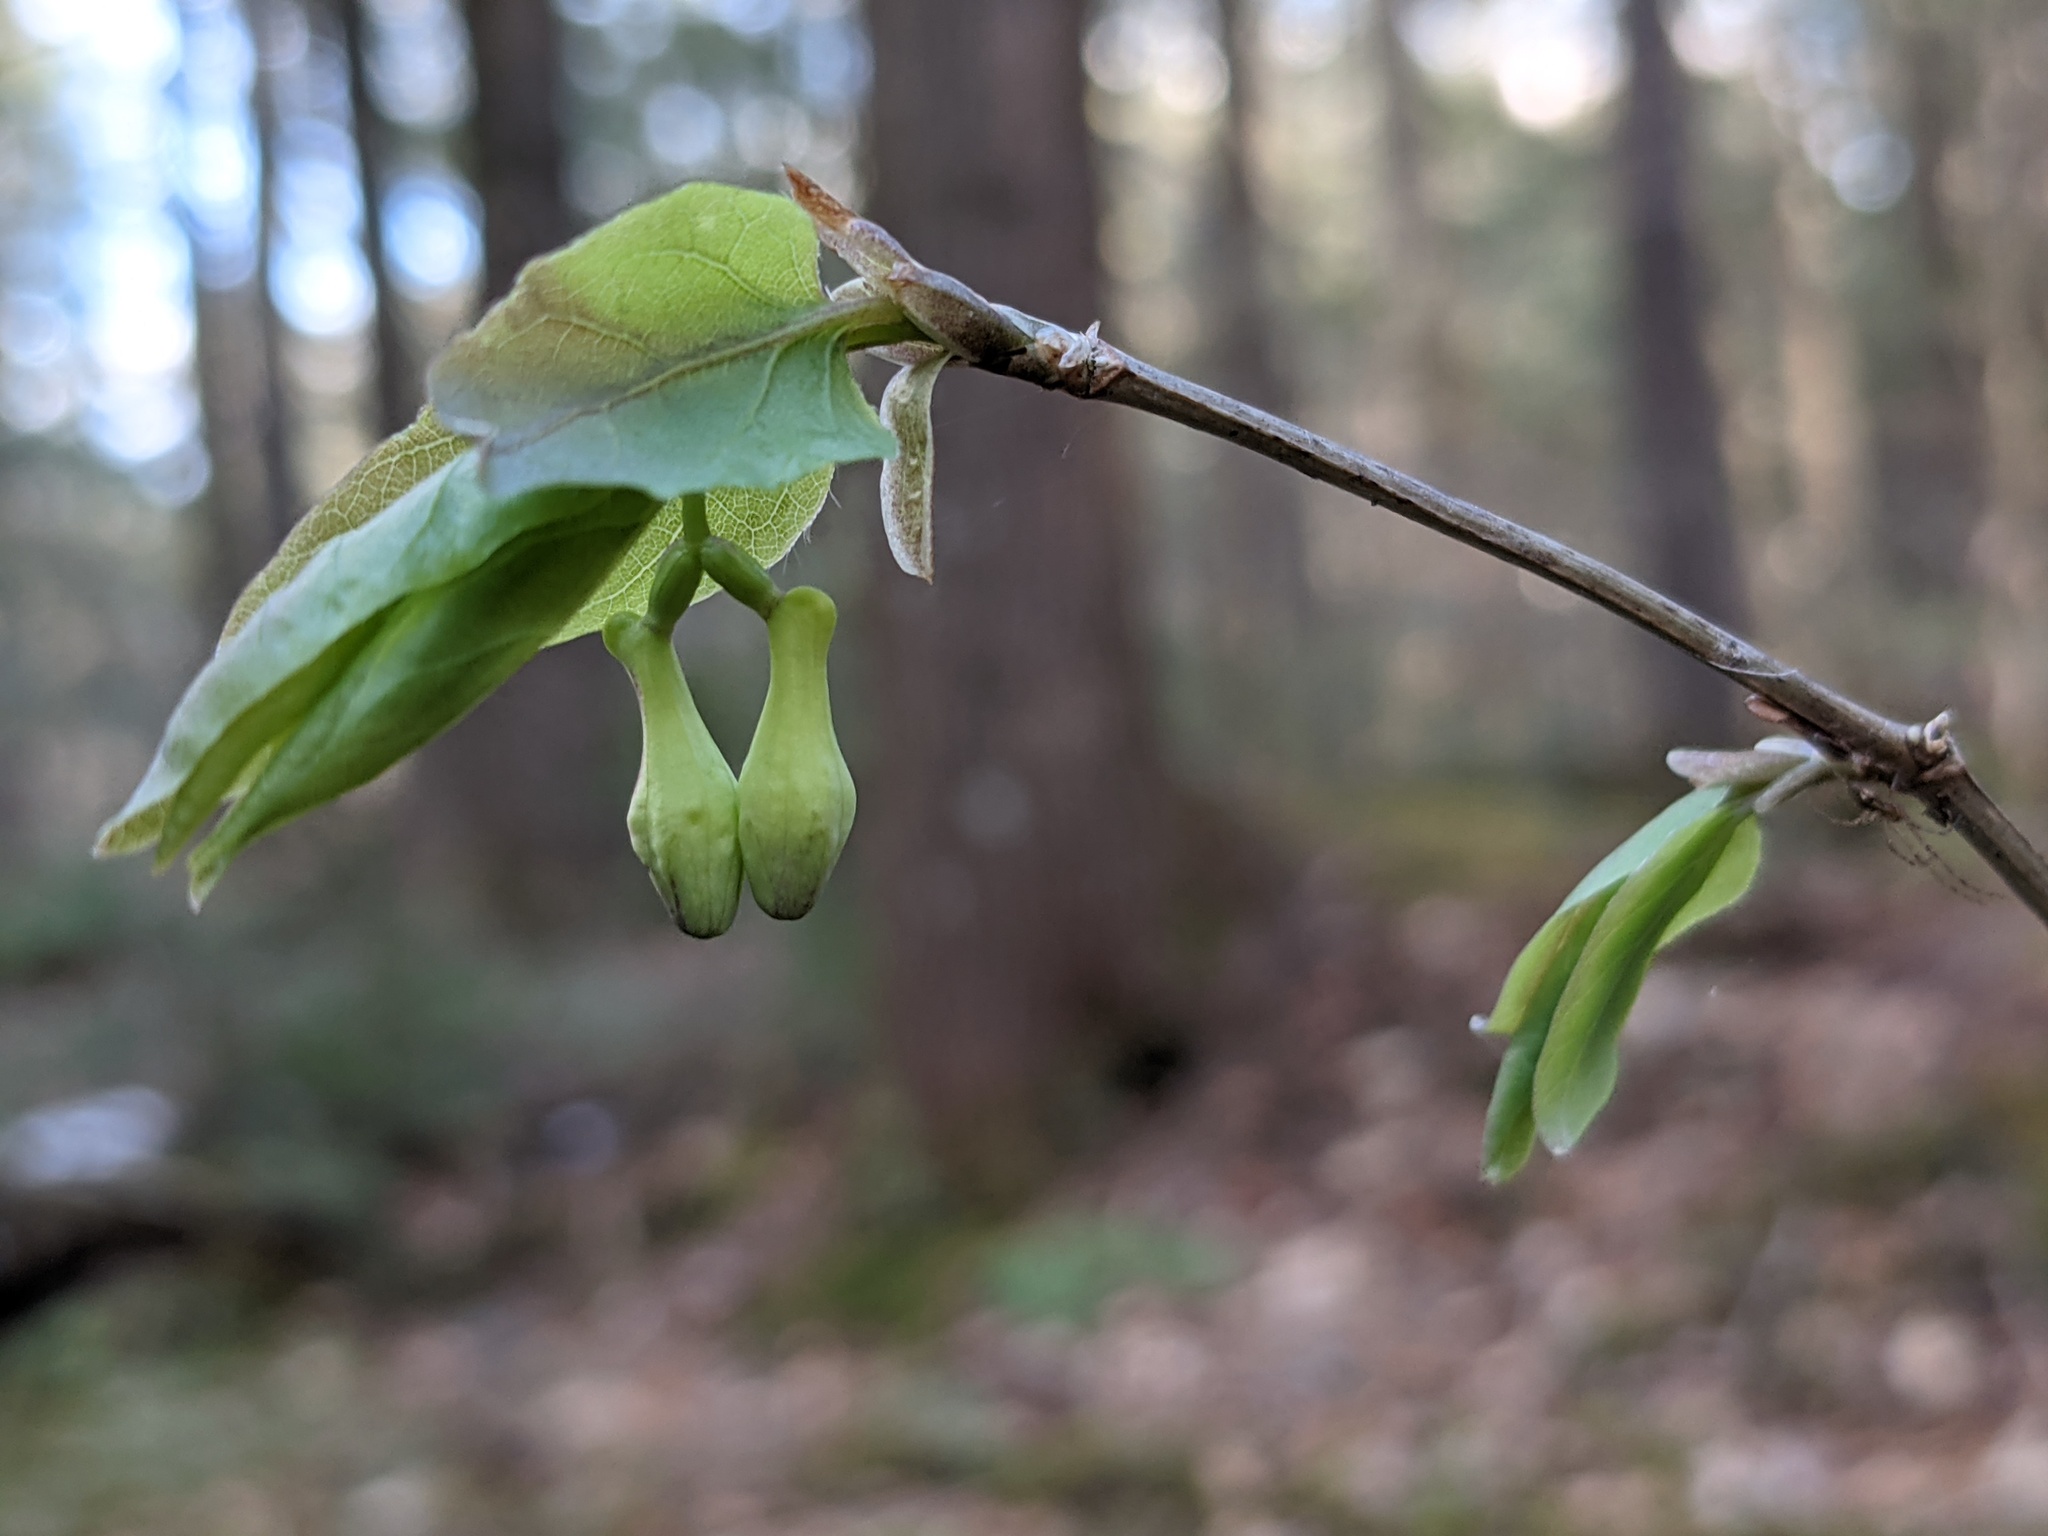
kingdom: Plantae
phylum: Tracheophyta
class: Magnoliopsida
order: Dipsacales
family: Caprifoliaceae
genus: Lonicera
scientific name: Lonicera canadensis
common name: American fly-honeysuckle
